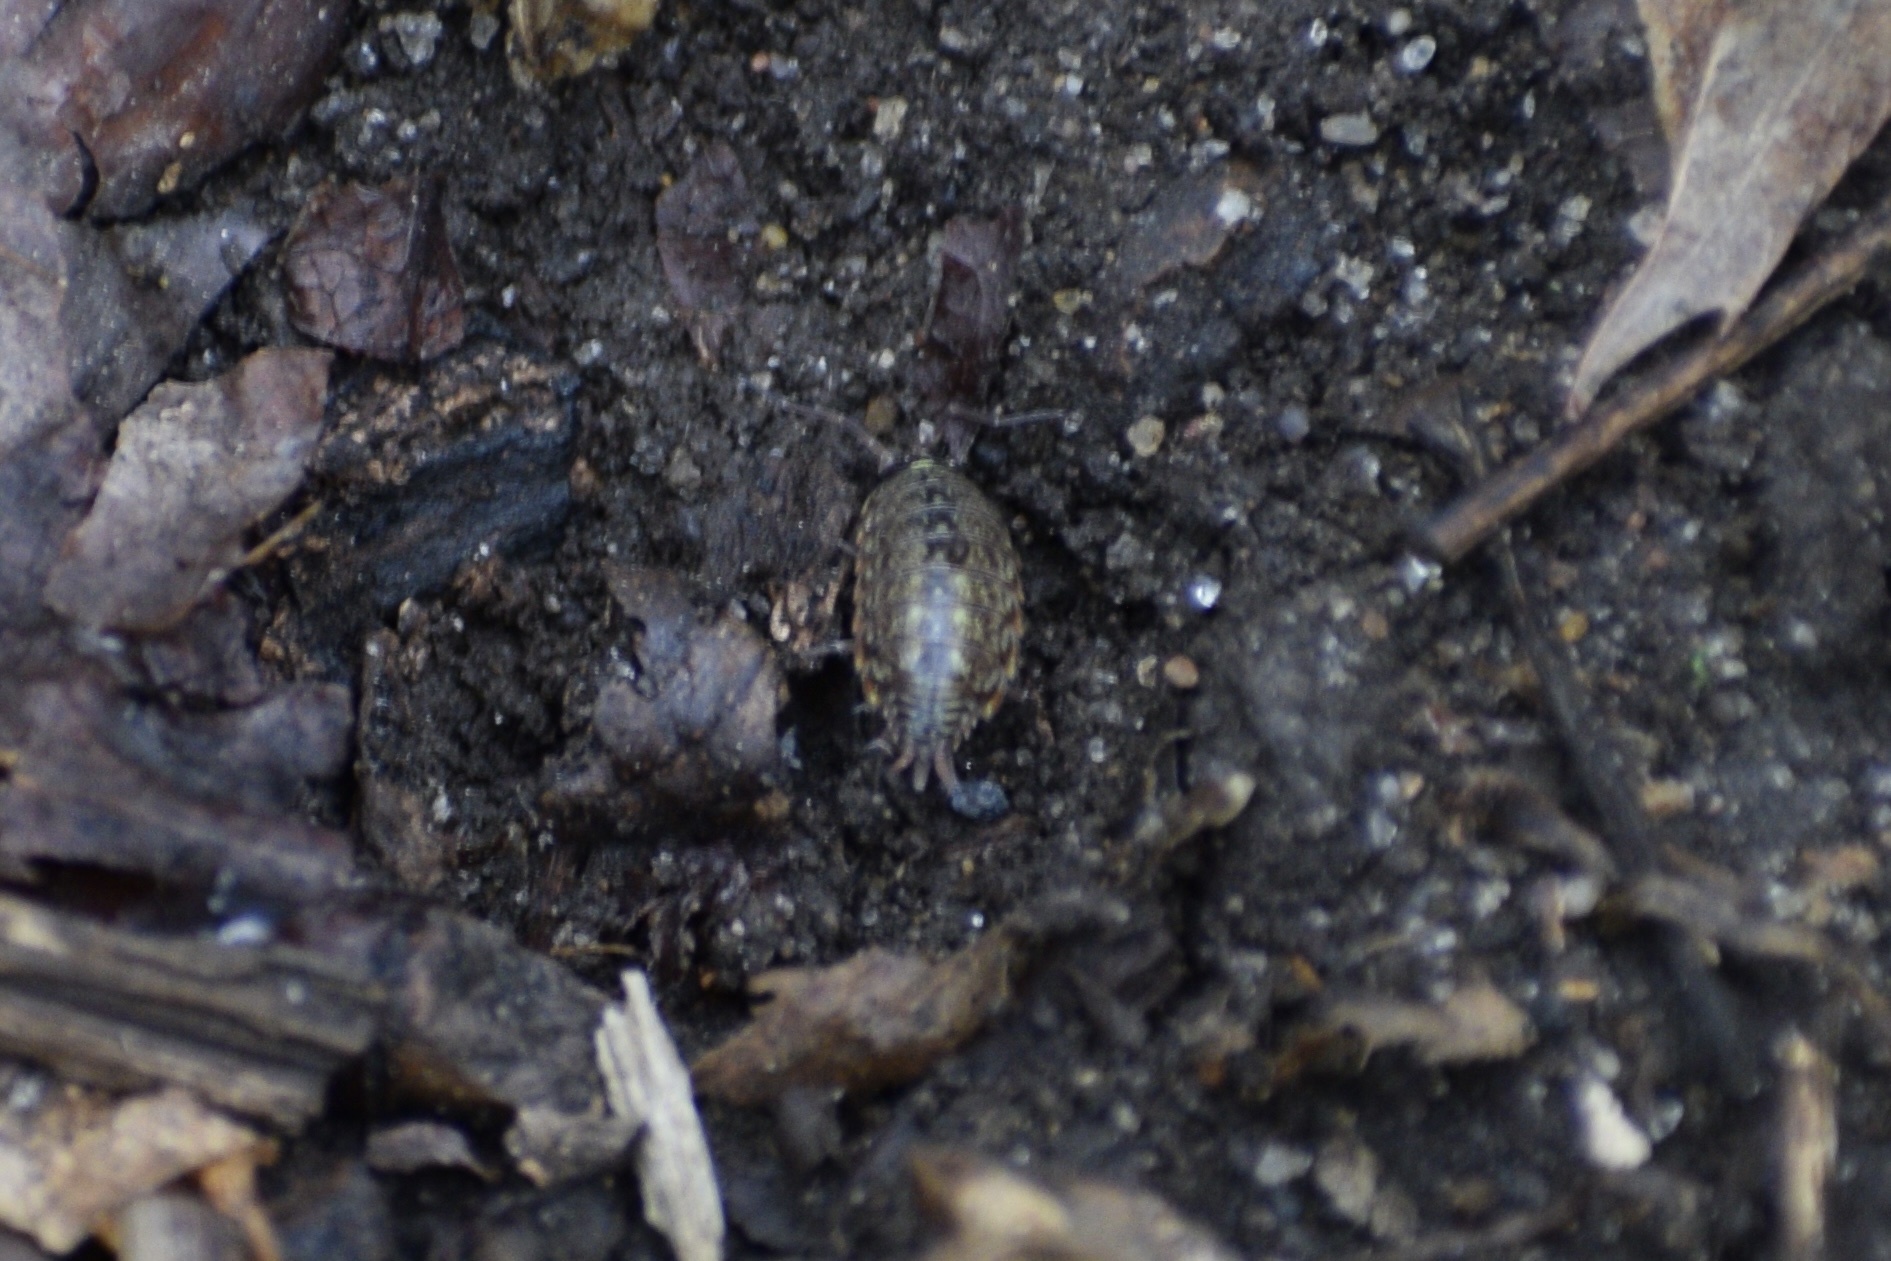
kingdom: Animalia
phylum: Arthropoda
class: Malacostraca
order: Isopoda
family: Philosciidae
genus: Philoscia
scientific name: Philoscia muscorum
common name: Common striped woodlouse
